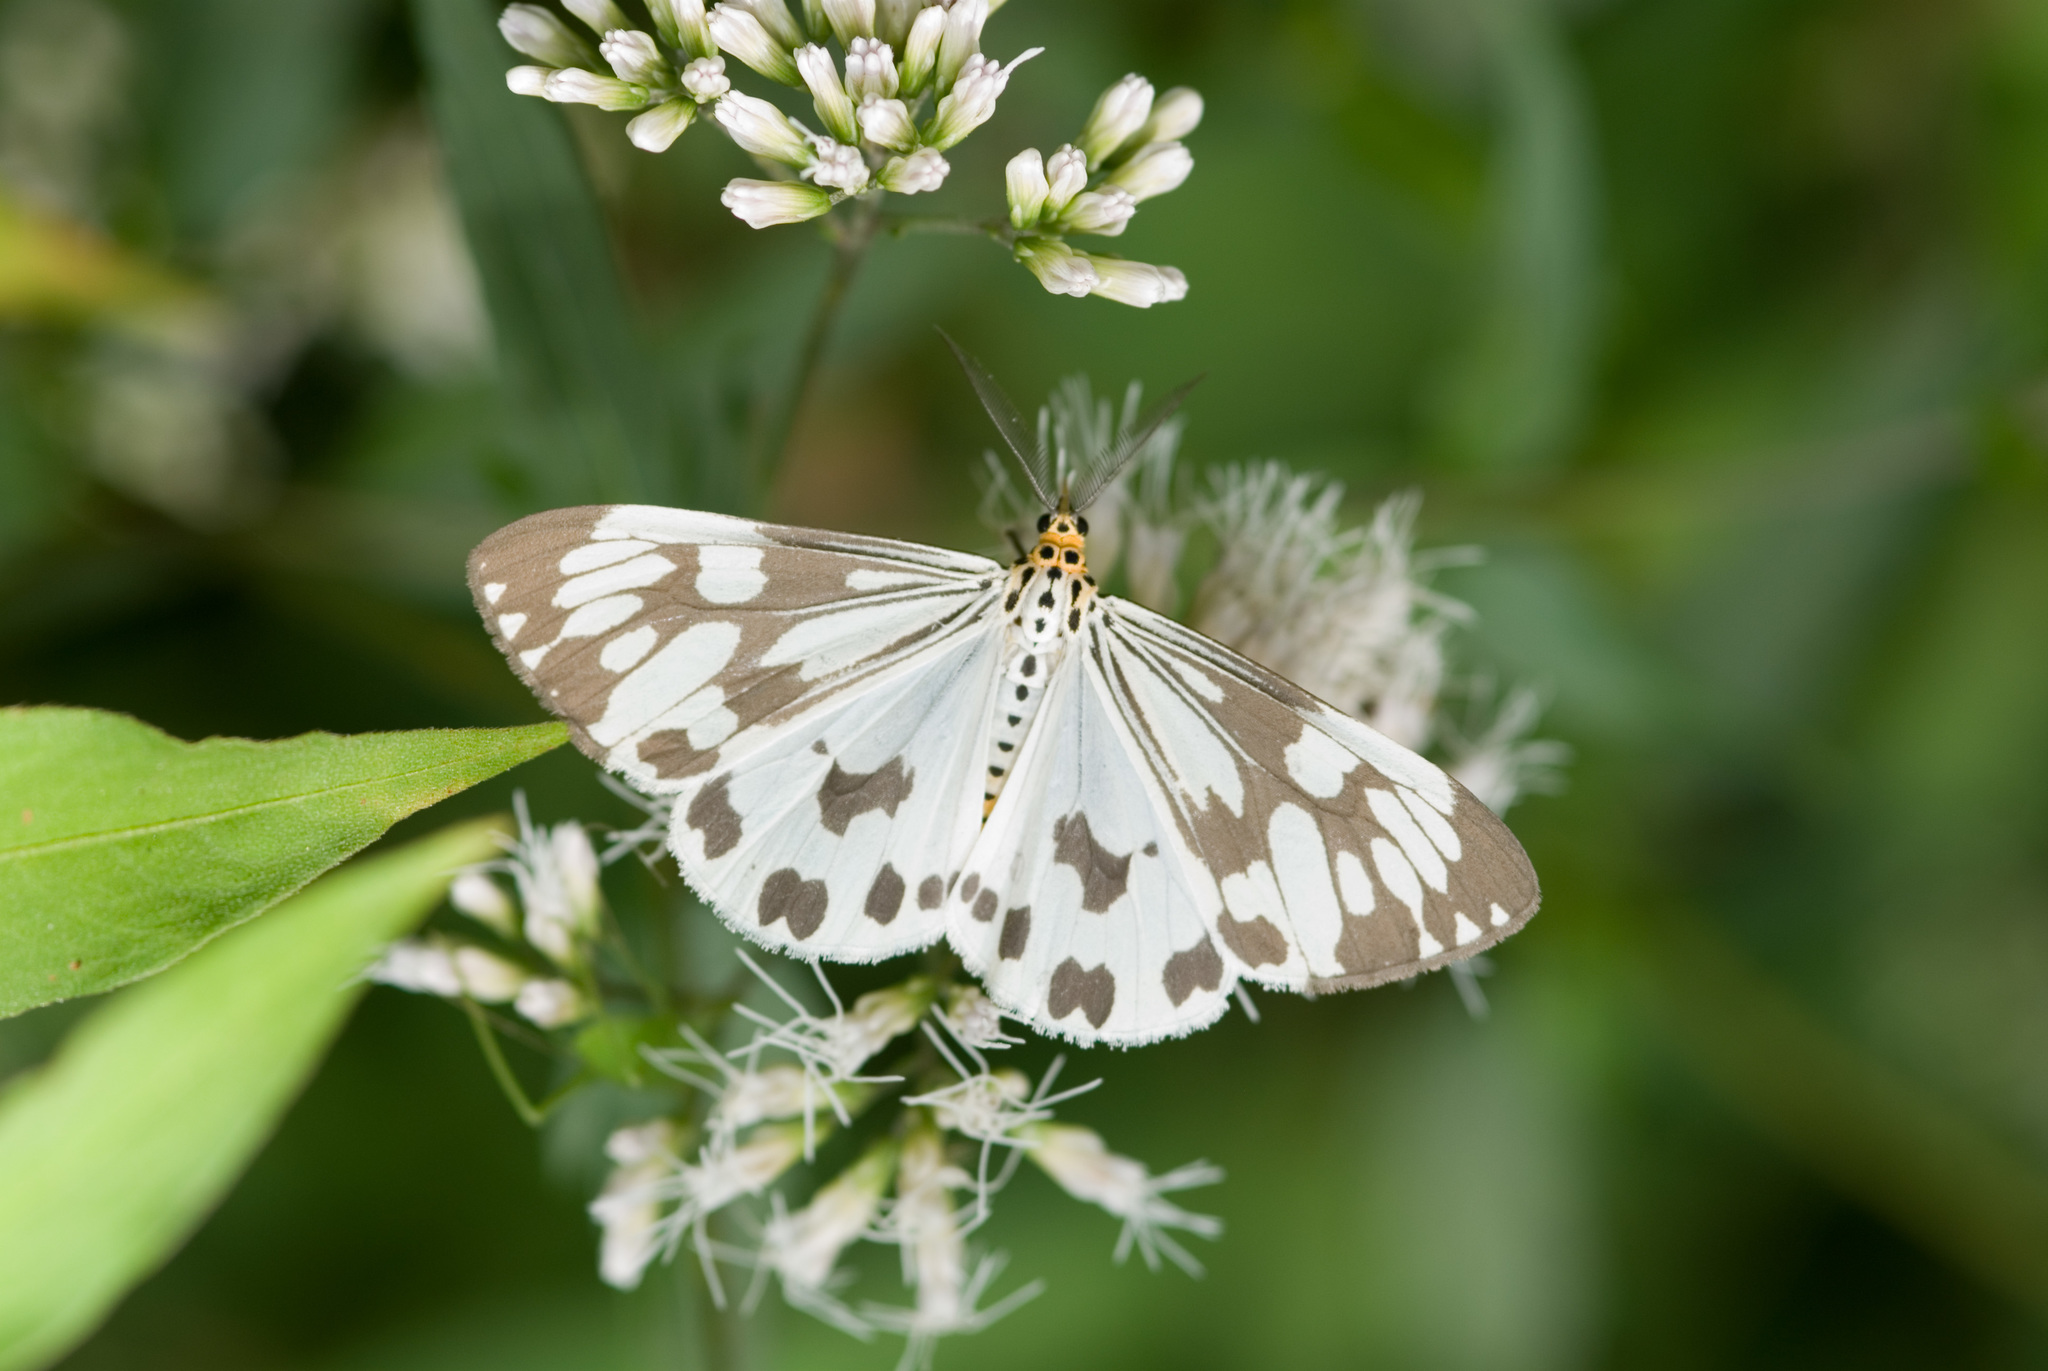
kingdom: Animalia
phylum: Arthropoda
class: Insecta
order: Lepidoptera
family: Erebidae
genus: Nyctemera
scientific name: Nyctemera adversata
